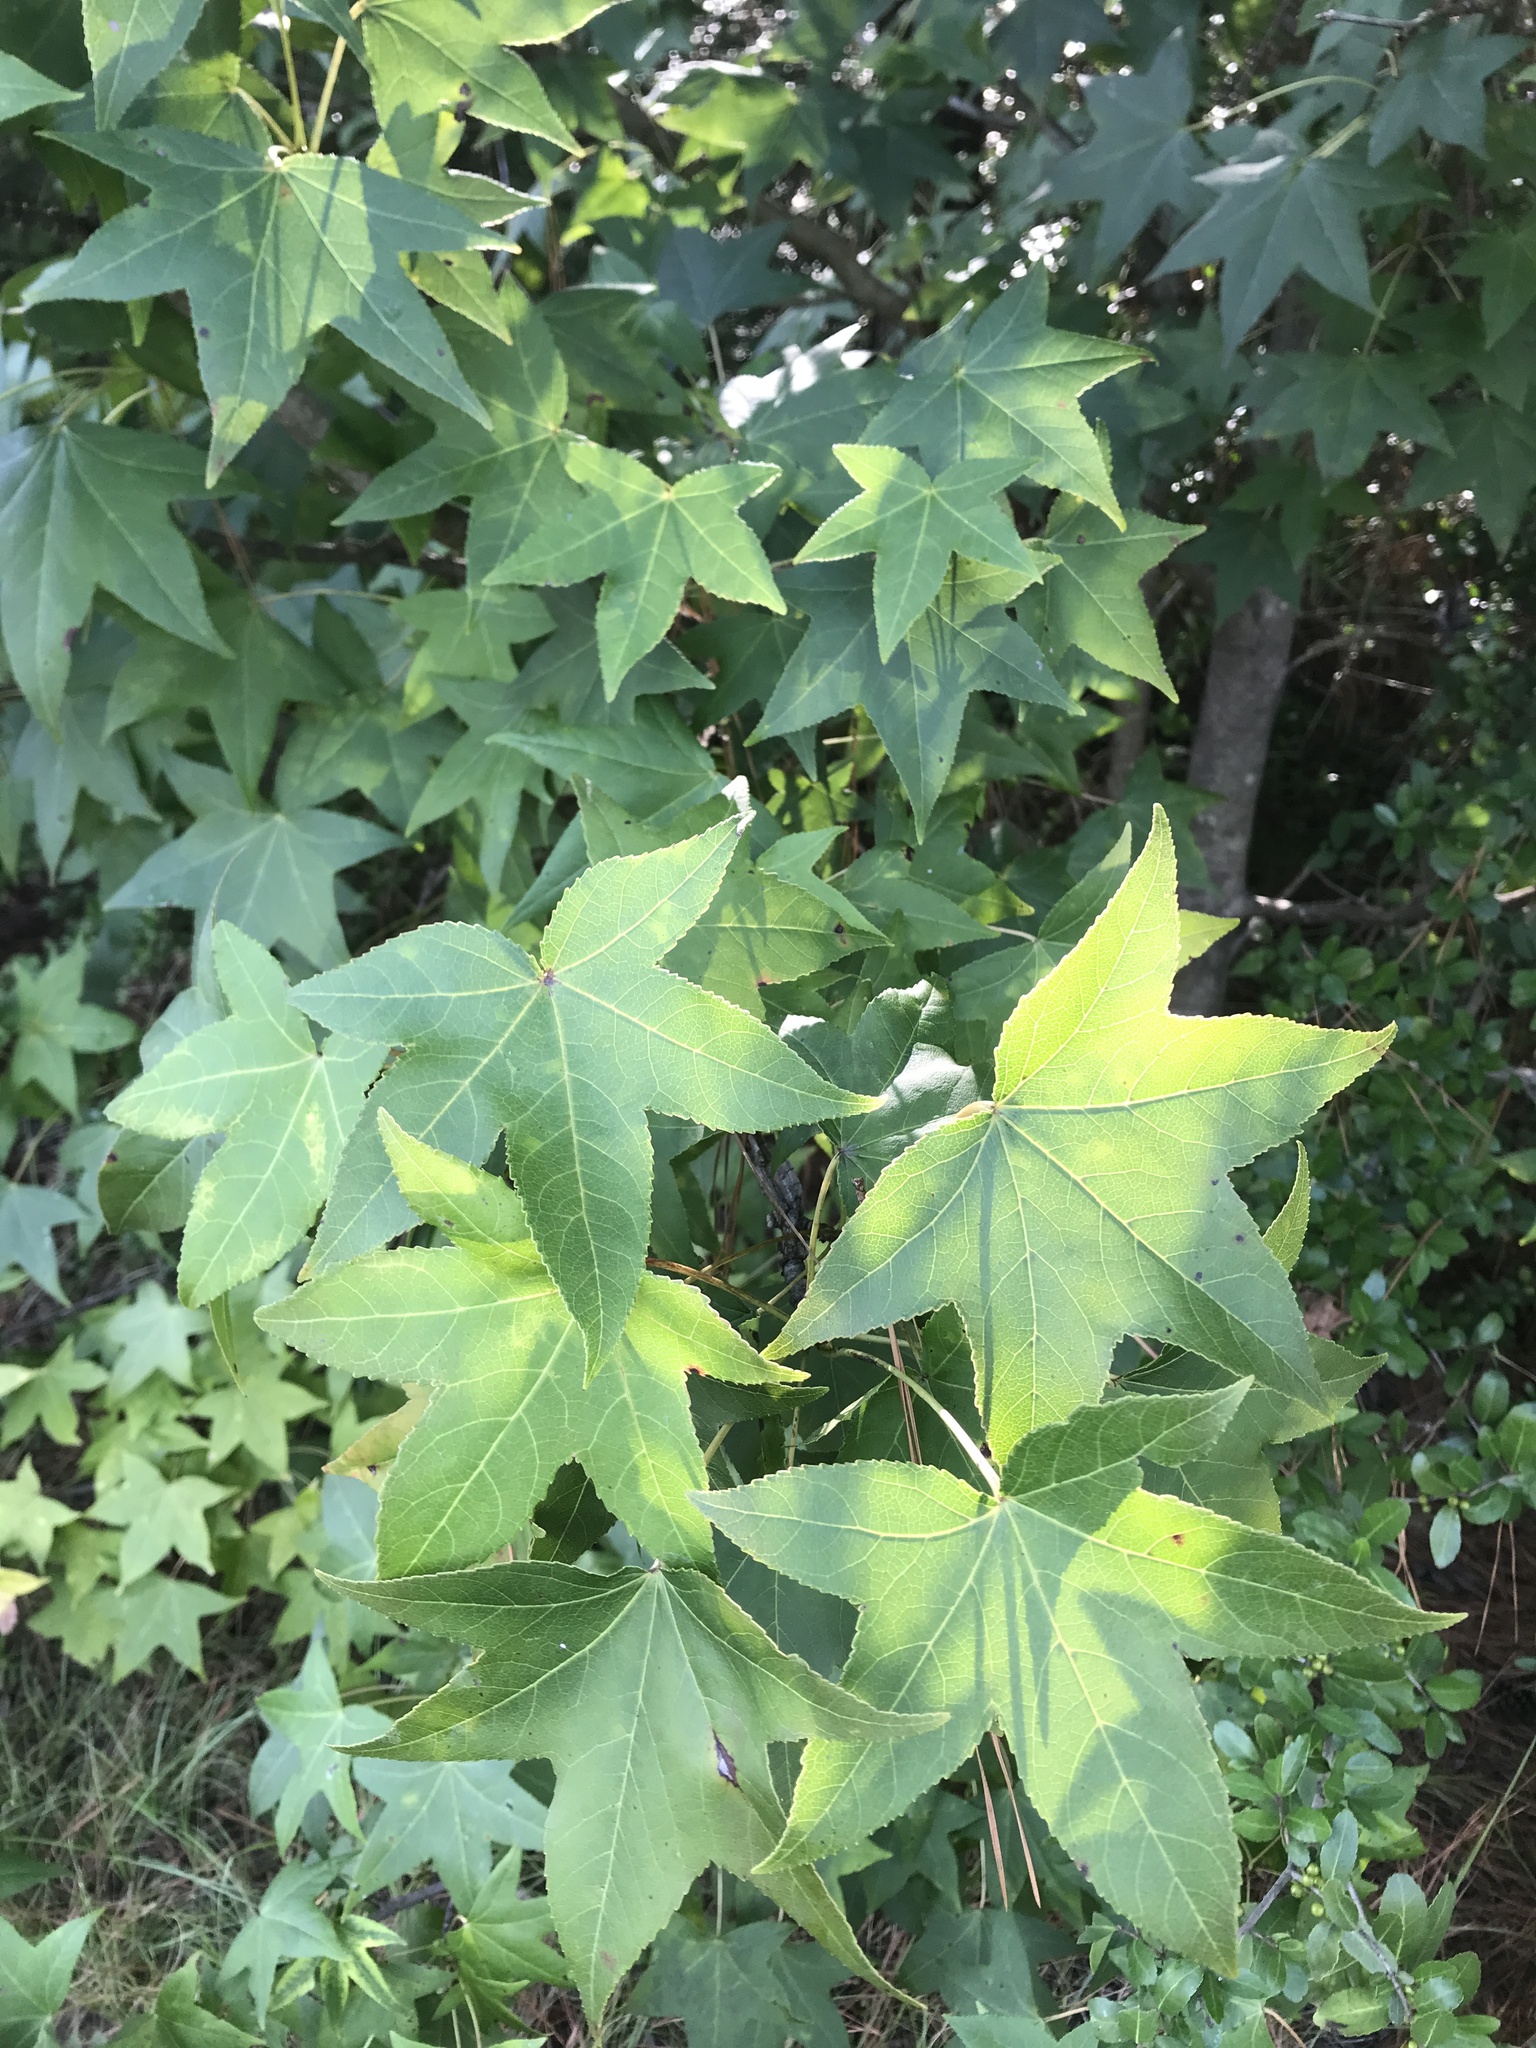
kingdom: Plantae
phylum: Tracheophyta
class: Magnoliopsida
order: Saxifragales
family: Altingiaceae
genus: Liquidambar
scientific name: Liquidambar styraciflua
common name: Sweet gum
